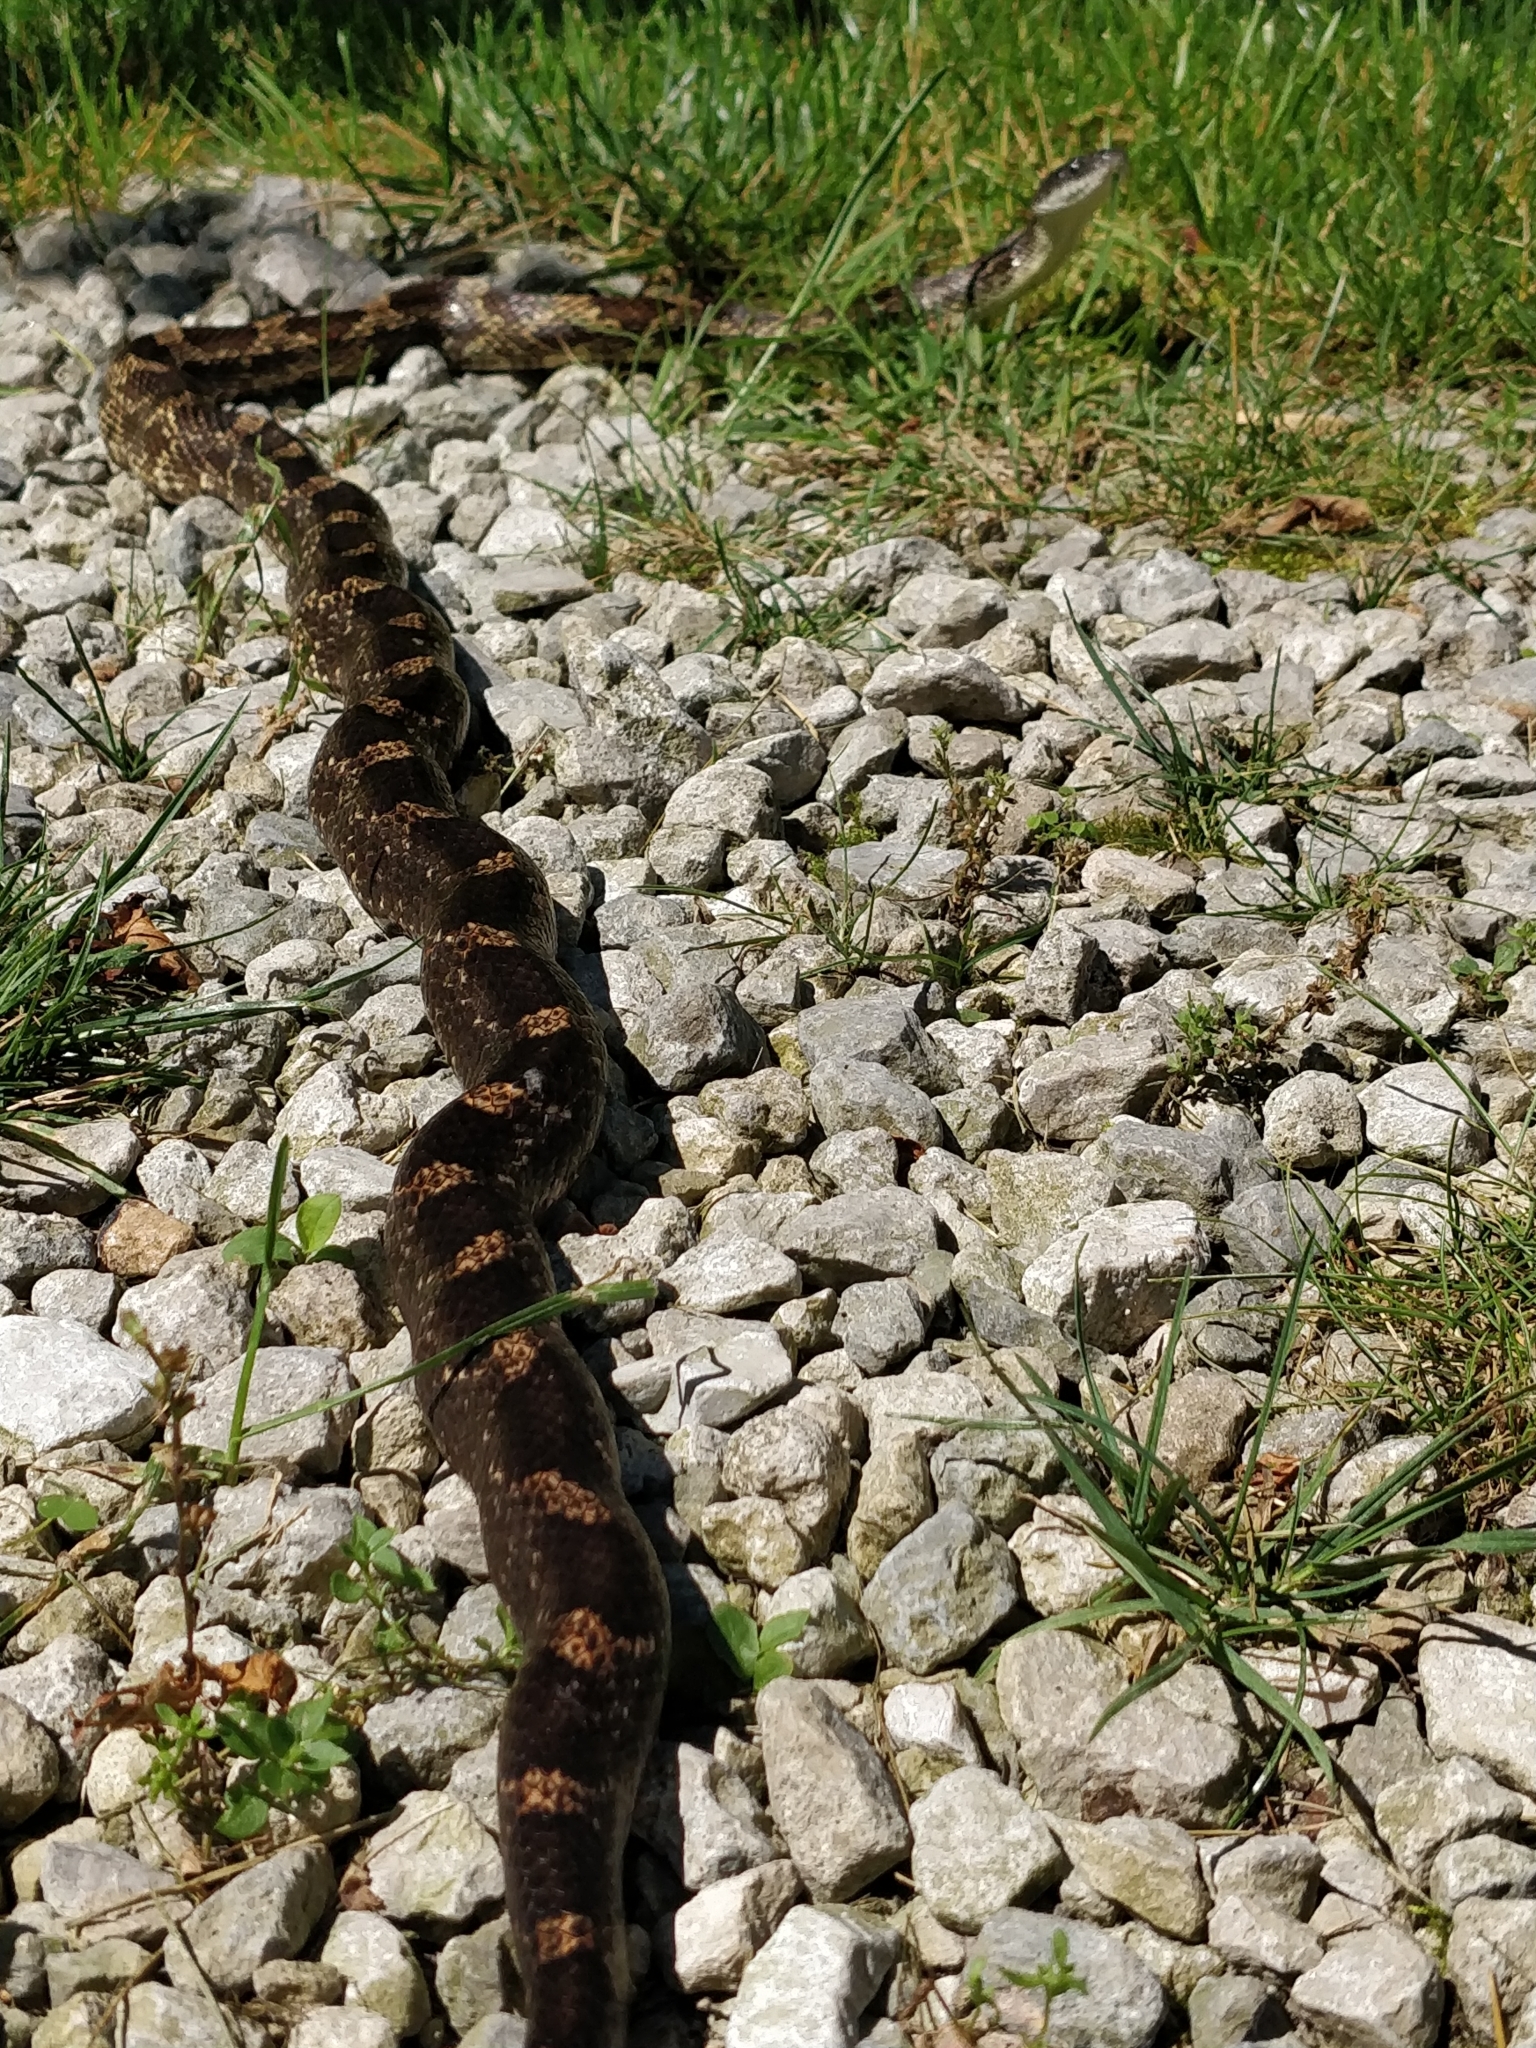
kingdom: Animalia
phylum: Chordata
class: Squamata
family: Colubridae
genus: Pantherophis
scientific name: Pantherophis spiloides
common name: Gray rat snake
